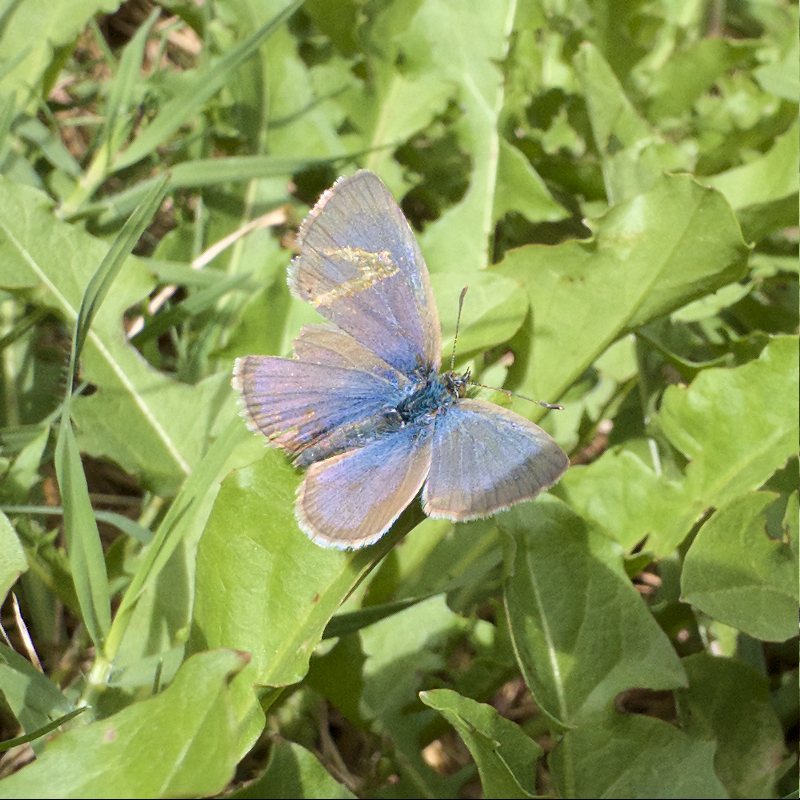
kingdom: Animalia
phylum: Arthropoda
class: Insecta
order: Lepidoptera
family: Lycaenidae
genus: Zizina
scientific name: Zizina otis
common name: Lesser grass blue
